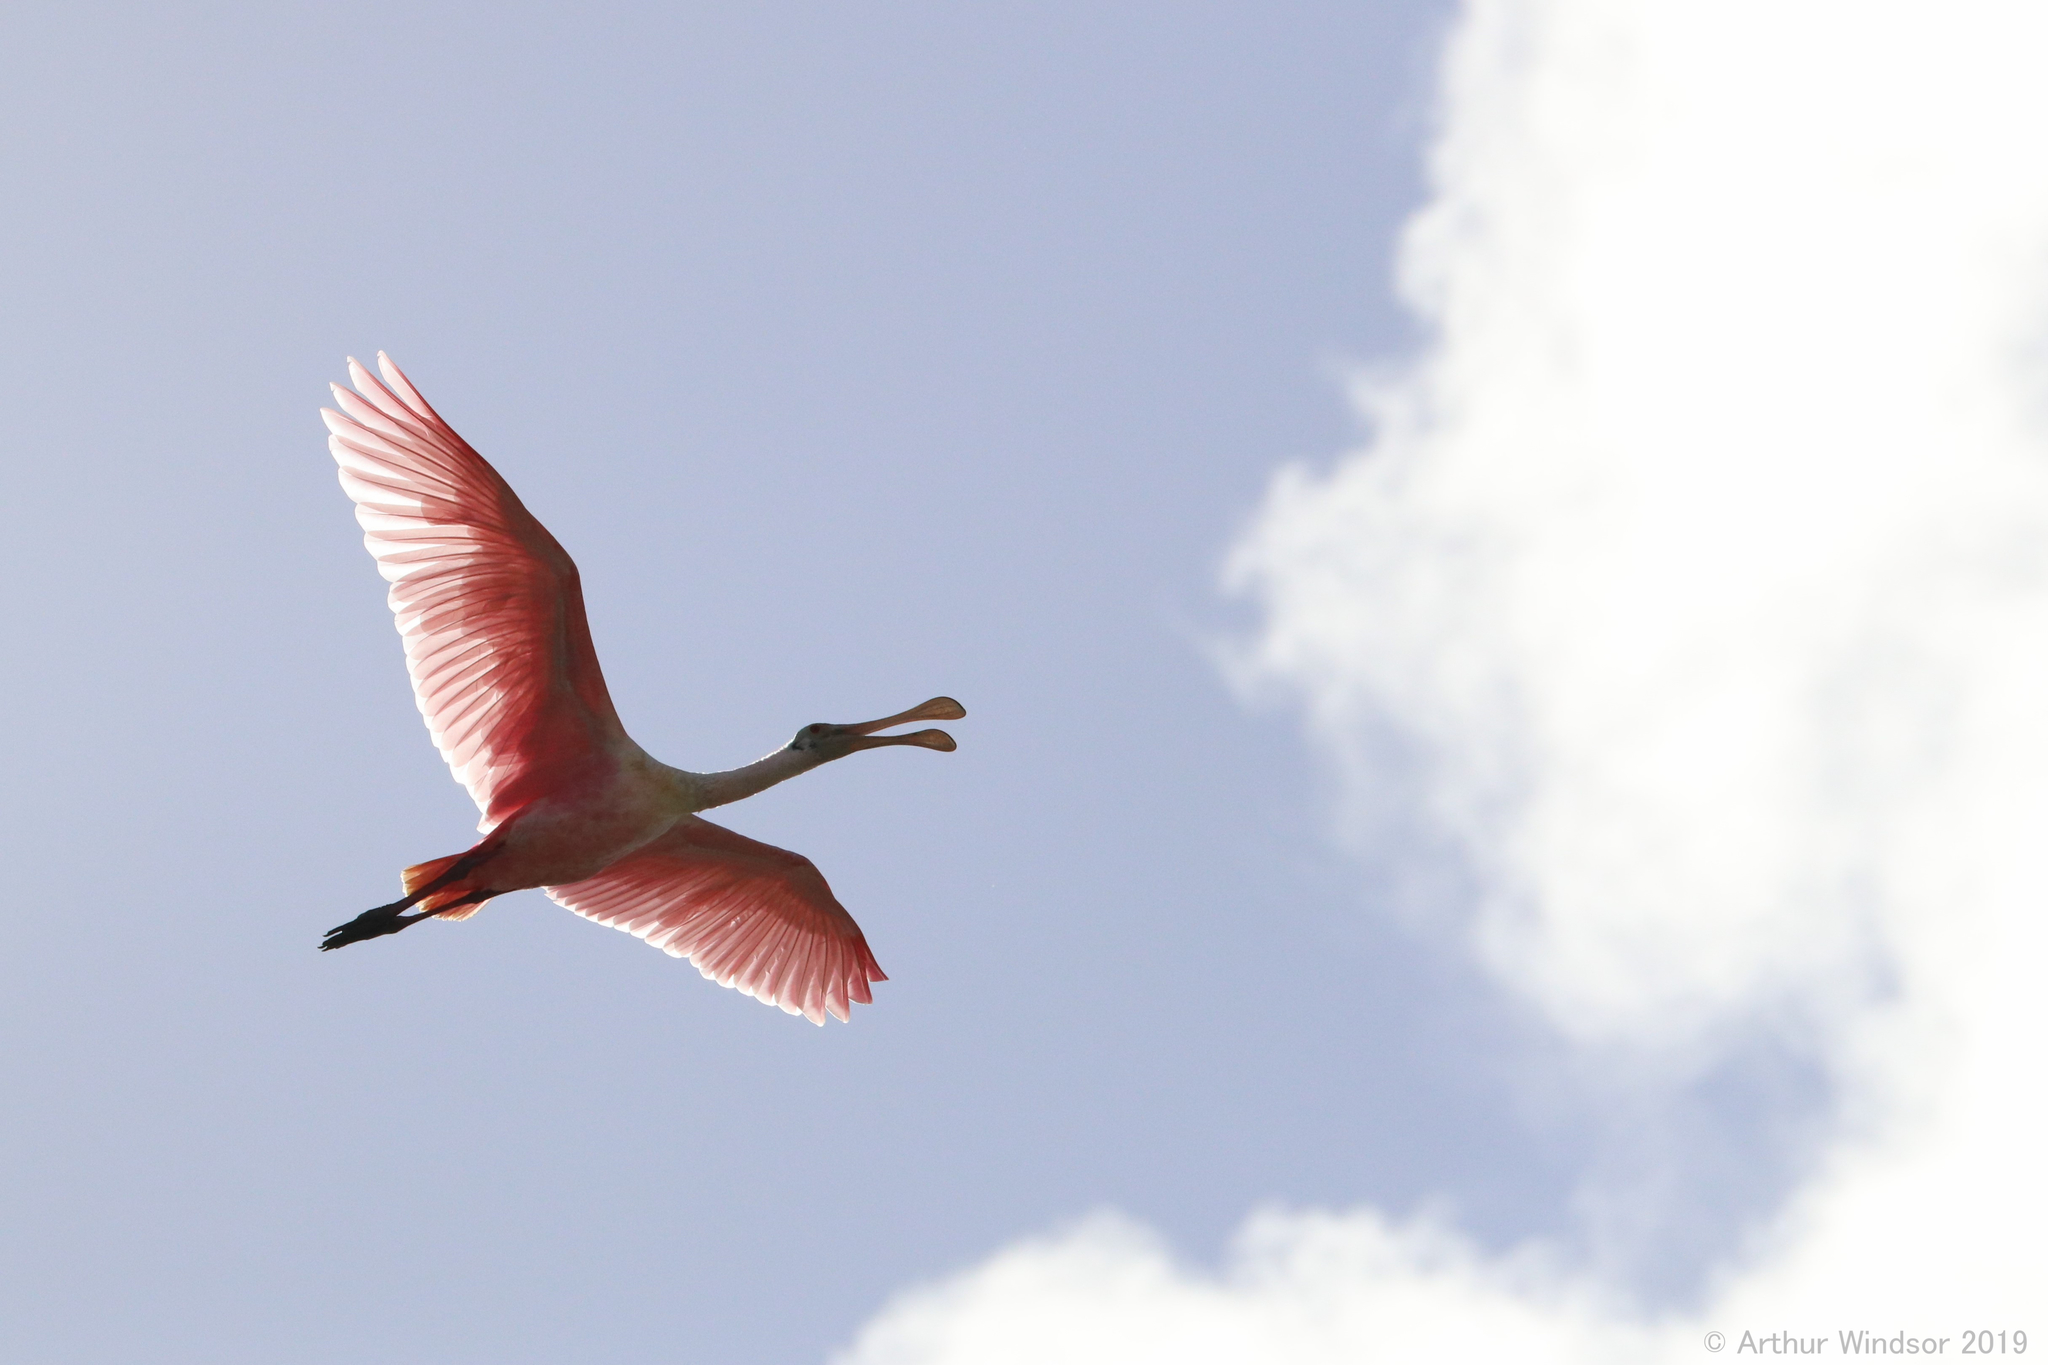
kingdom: Animalia
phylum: Chordata
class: Aves
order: Pelecaniformes
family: Threskiornithidae
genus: Platalea
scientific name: Platalea ajaja
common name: Roseate spoonbill
